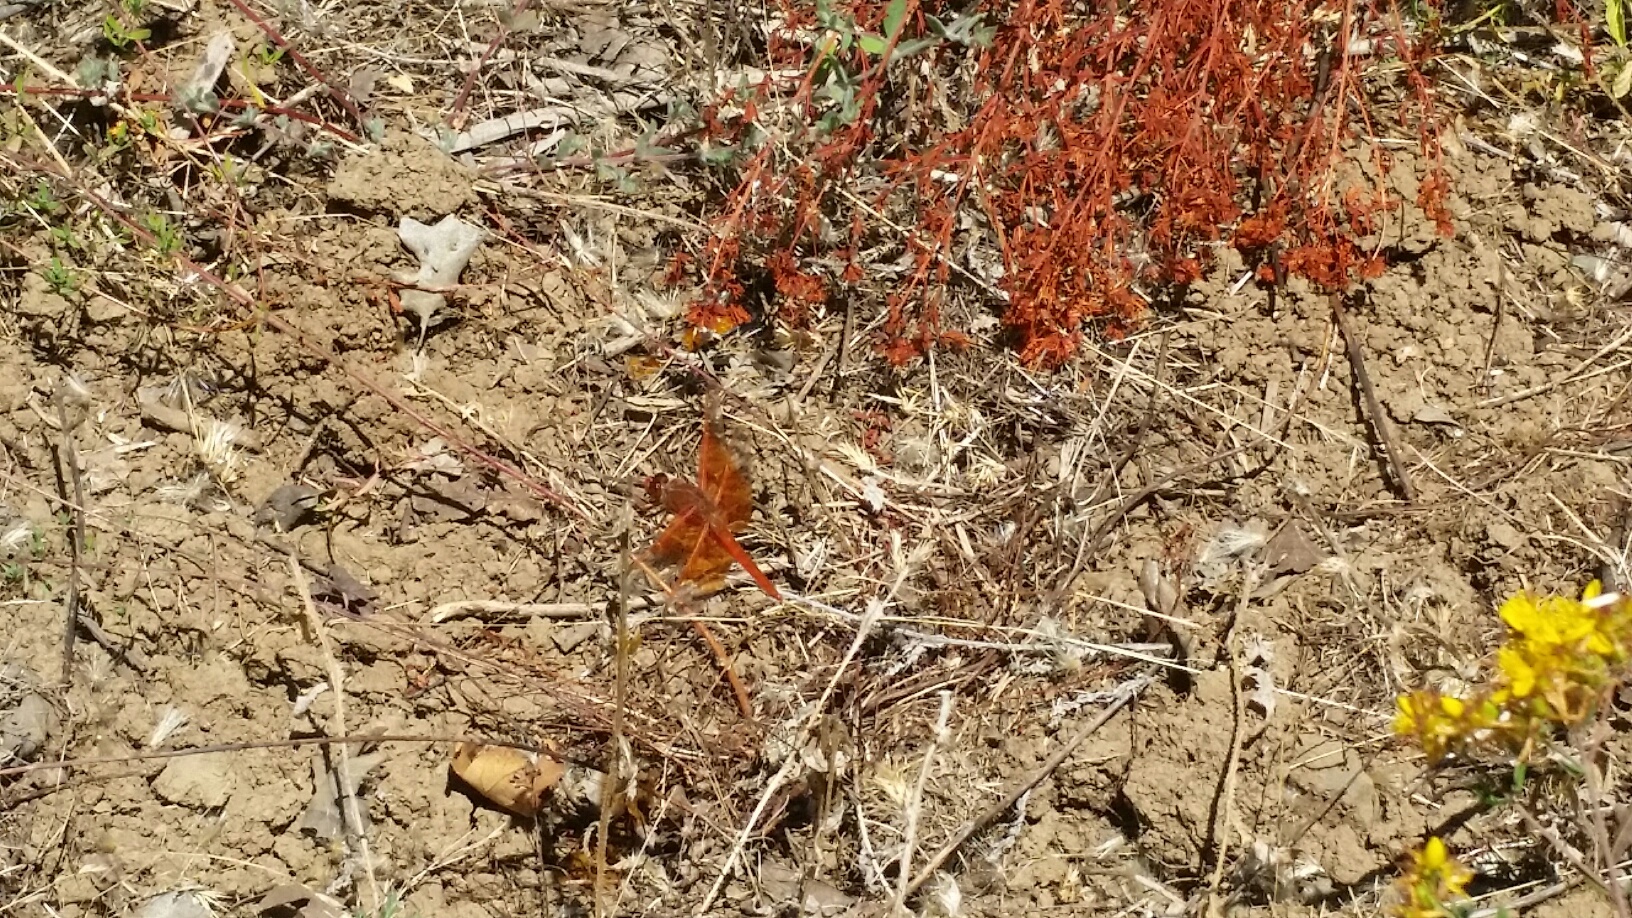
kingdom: Animalia
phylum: Arthropoda
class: Insecta
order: Odonata
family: Libellulidae
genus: Libellula
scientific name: Libellula saturata
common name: Flame skimmer
